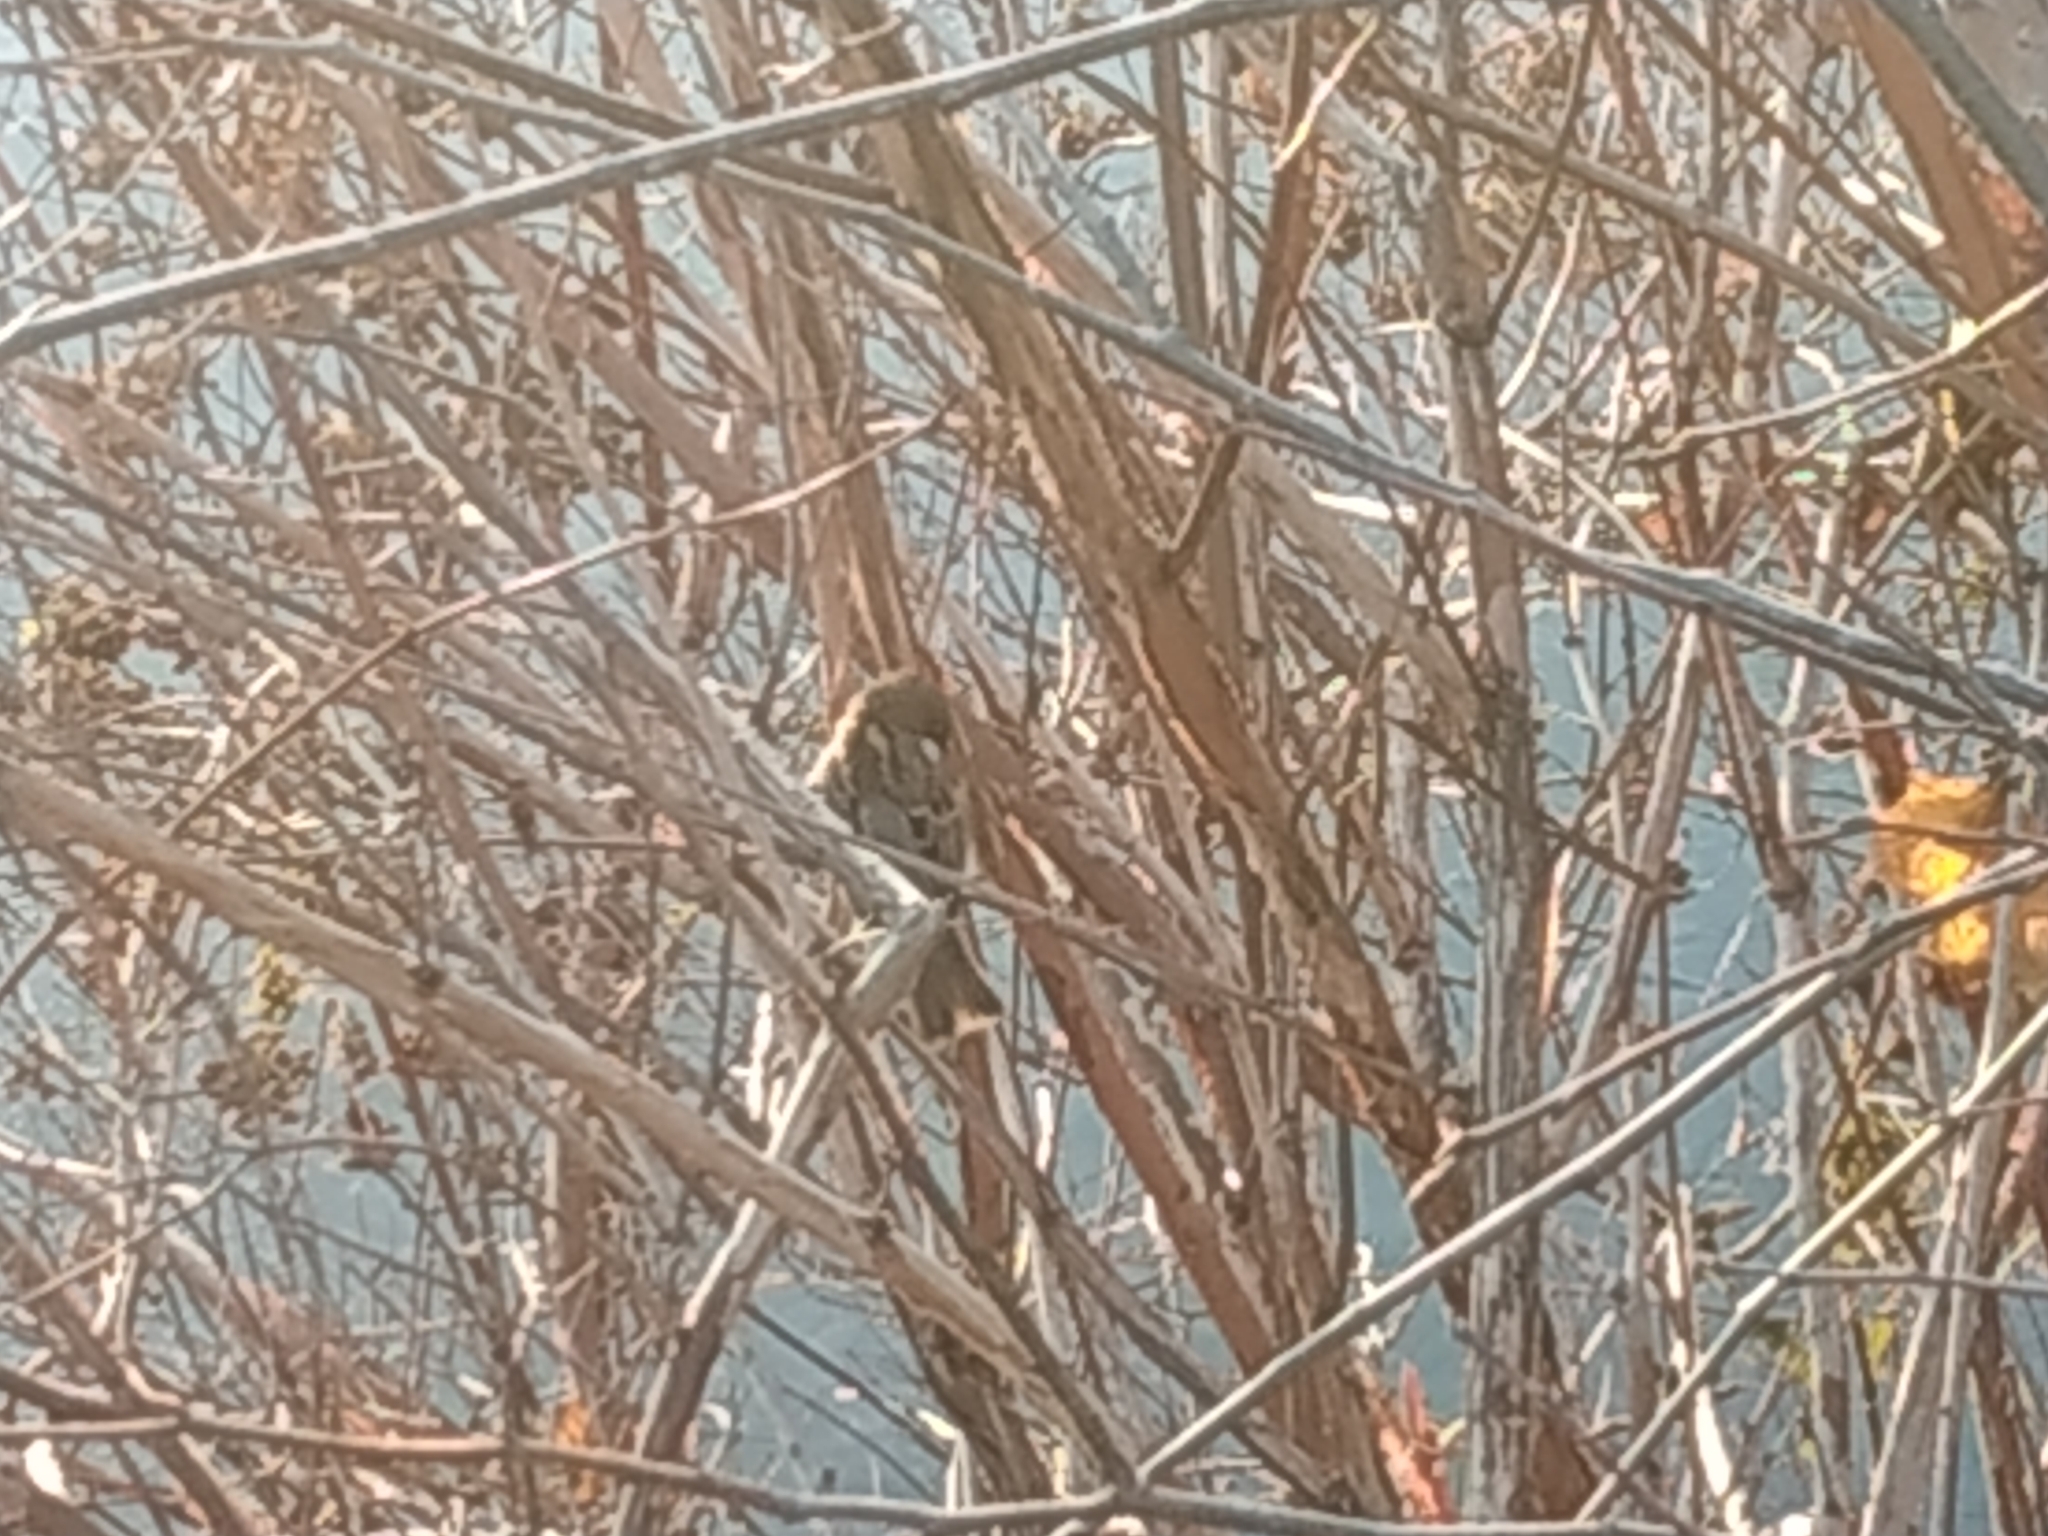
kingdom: Animalia
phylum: Chordata
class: Aves
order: Passeriformes
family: Passeridae
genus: Passer
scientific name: Passer domesticus
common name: House sparrow
